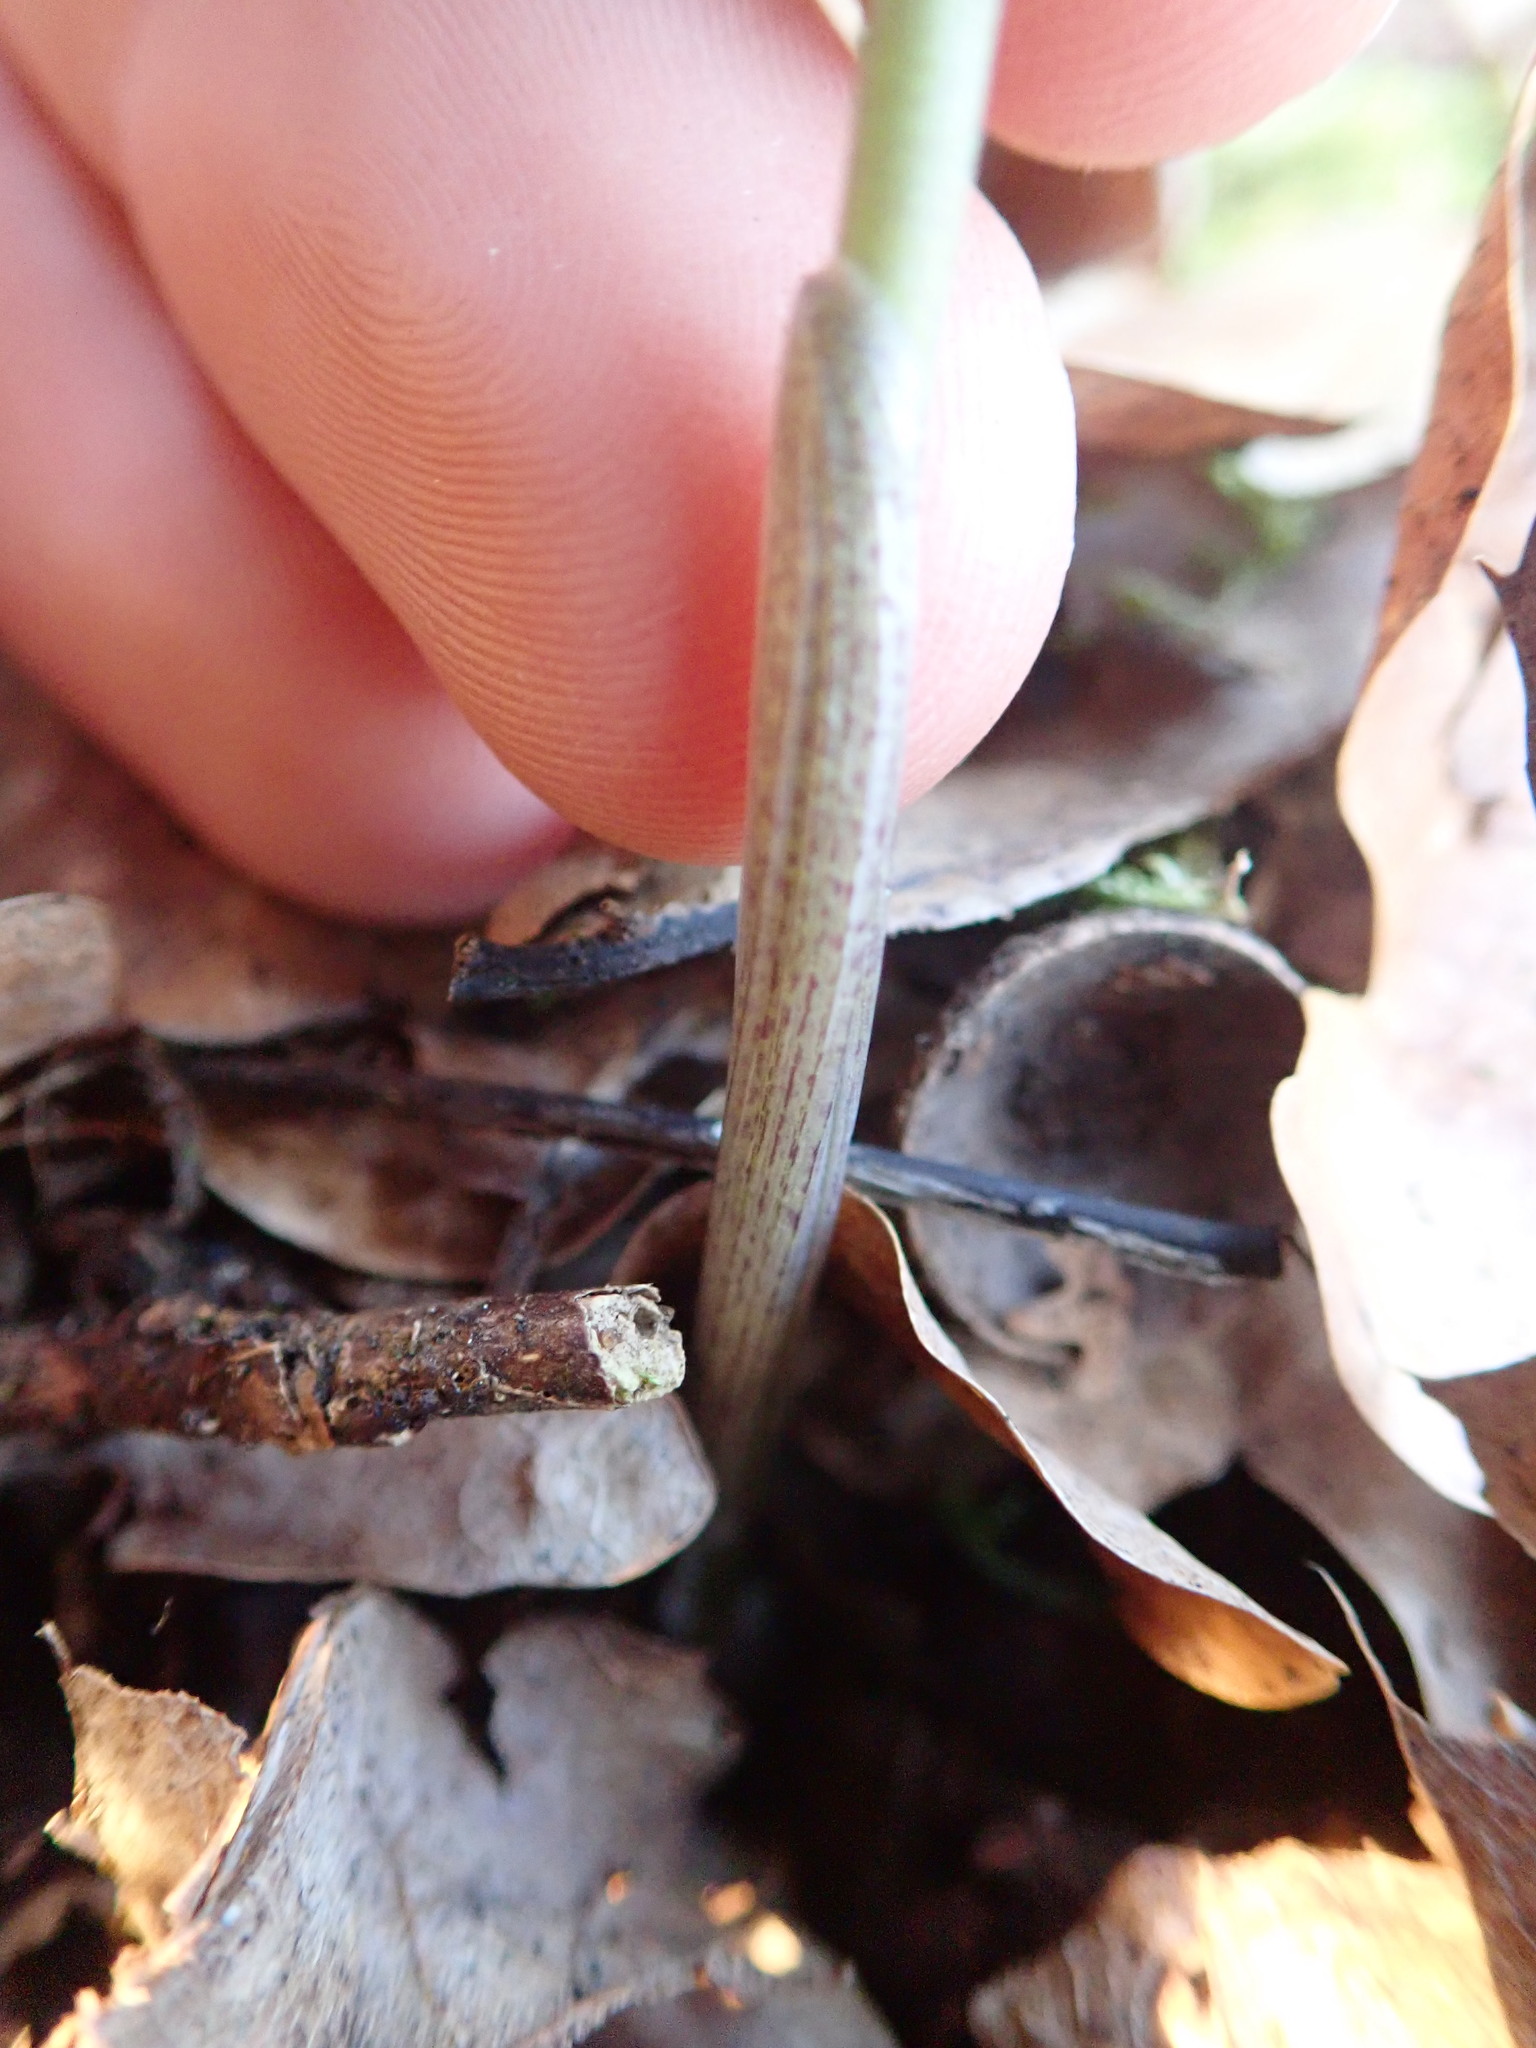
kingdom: Plantae
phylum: Tracheophyta
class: Liliopsida
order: Asparagales
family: Asparagaceae
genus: Polygonatum
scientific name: Polygonatum multiflorum
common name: Solomon's-seal
